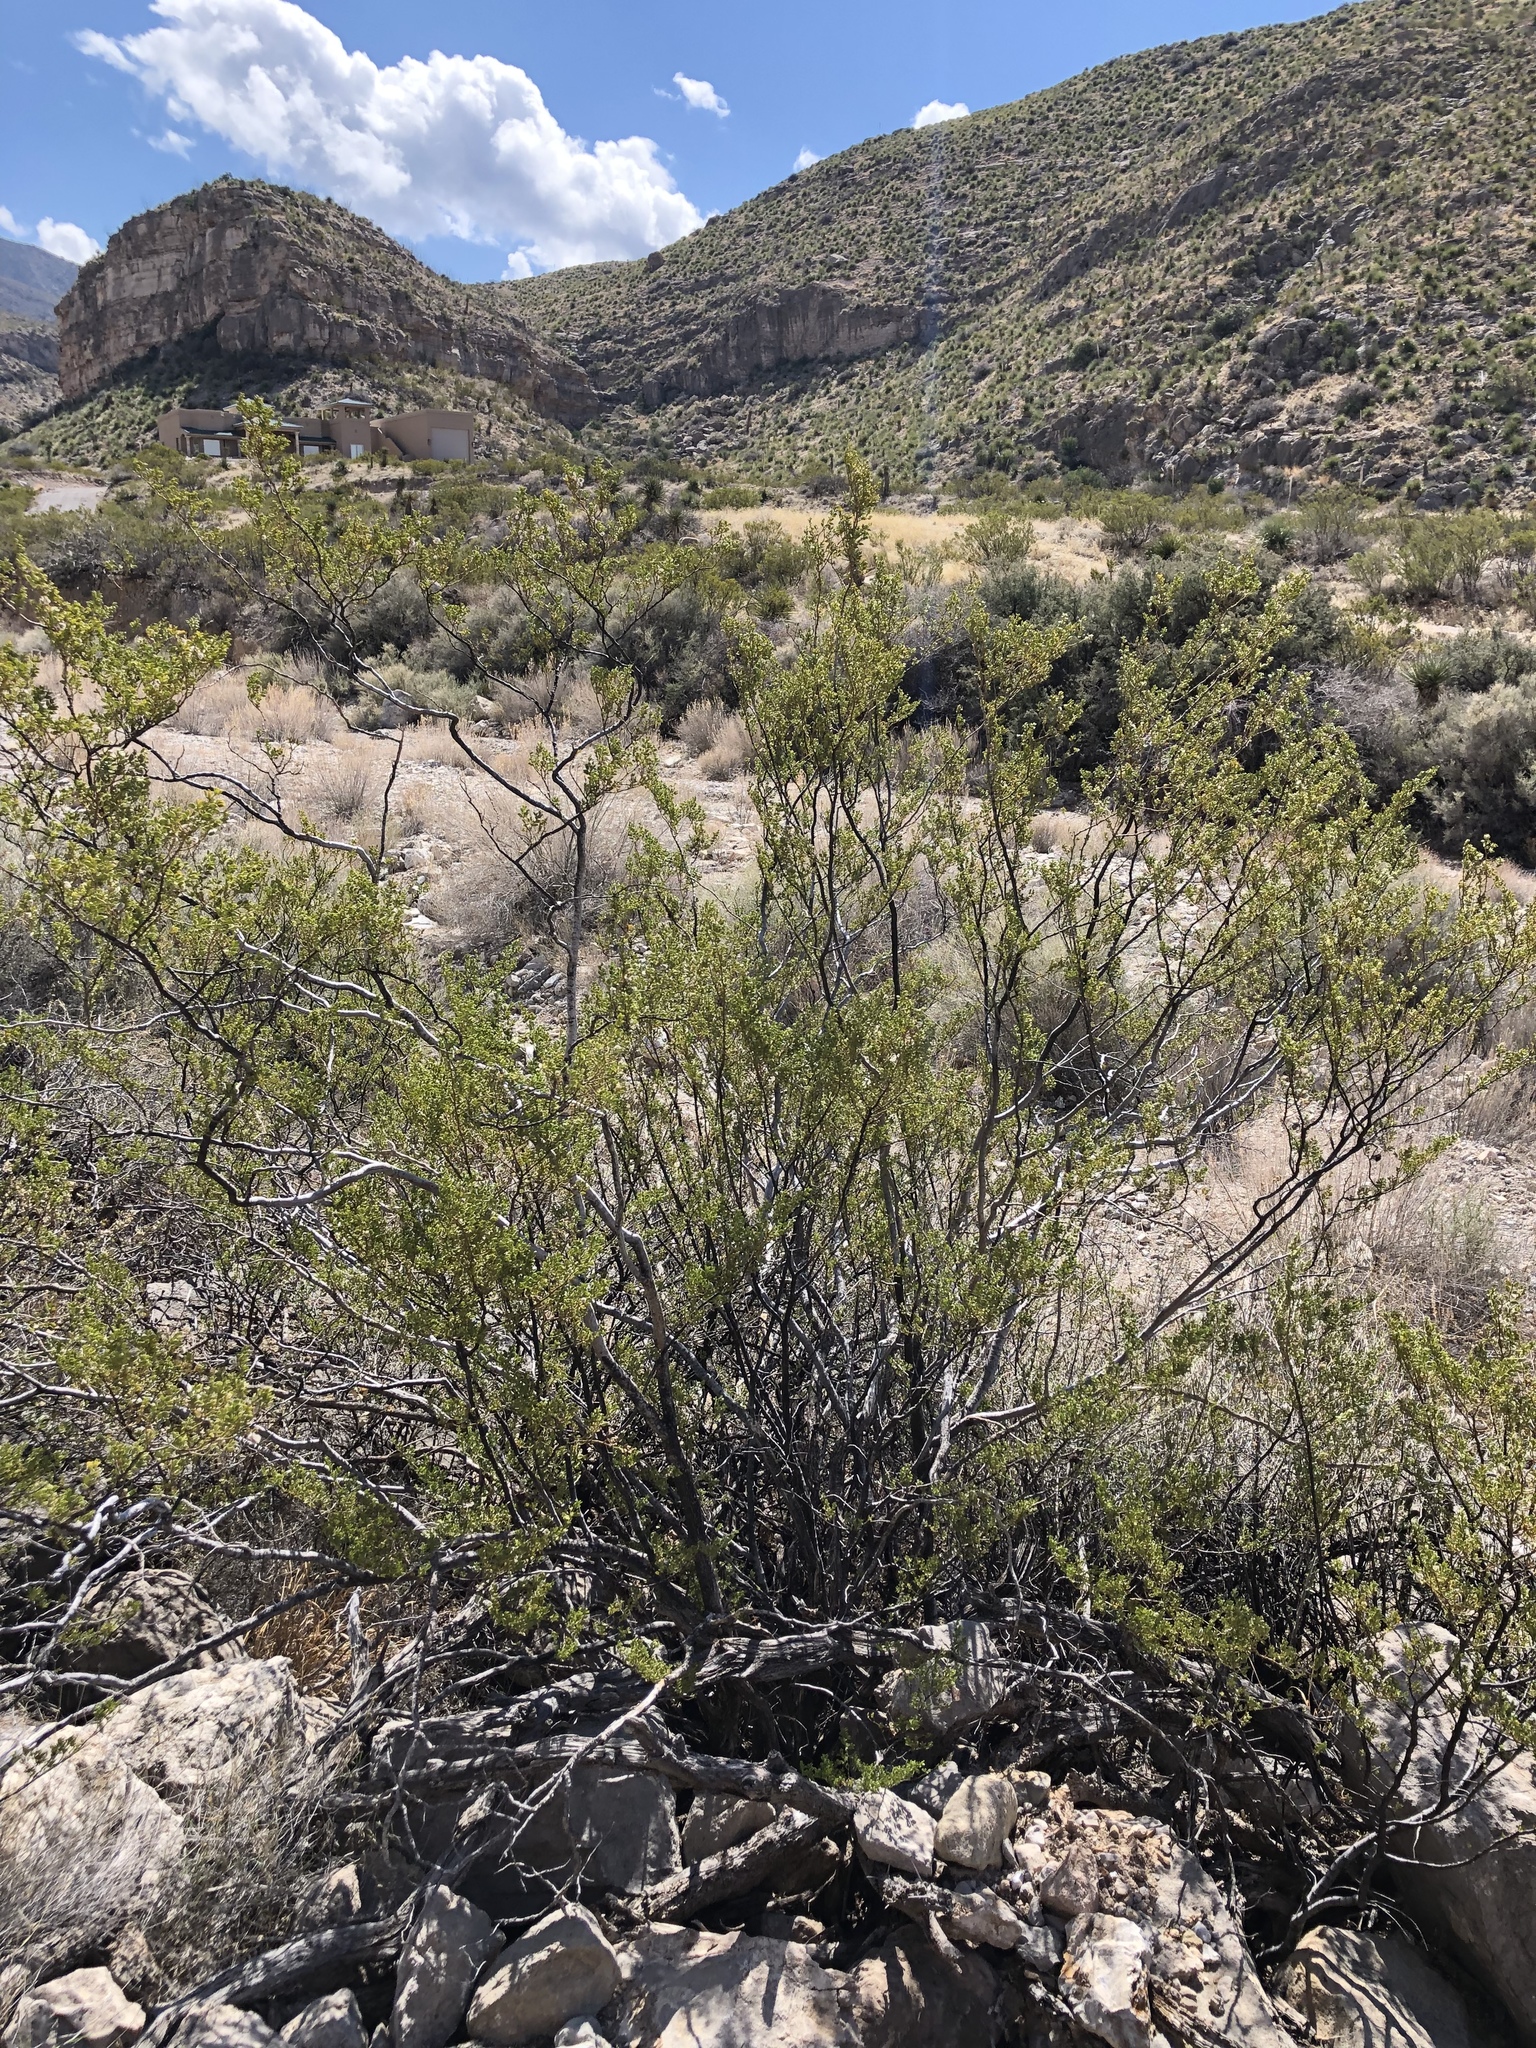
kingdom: Plantae
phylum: Tracheophyta
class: Magnoliopsida
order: Zygophyllales
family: Zygophyllaceae
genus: Larrea
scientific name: Larrea tridentata
